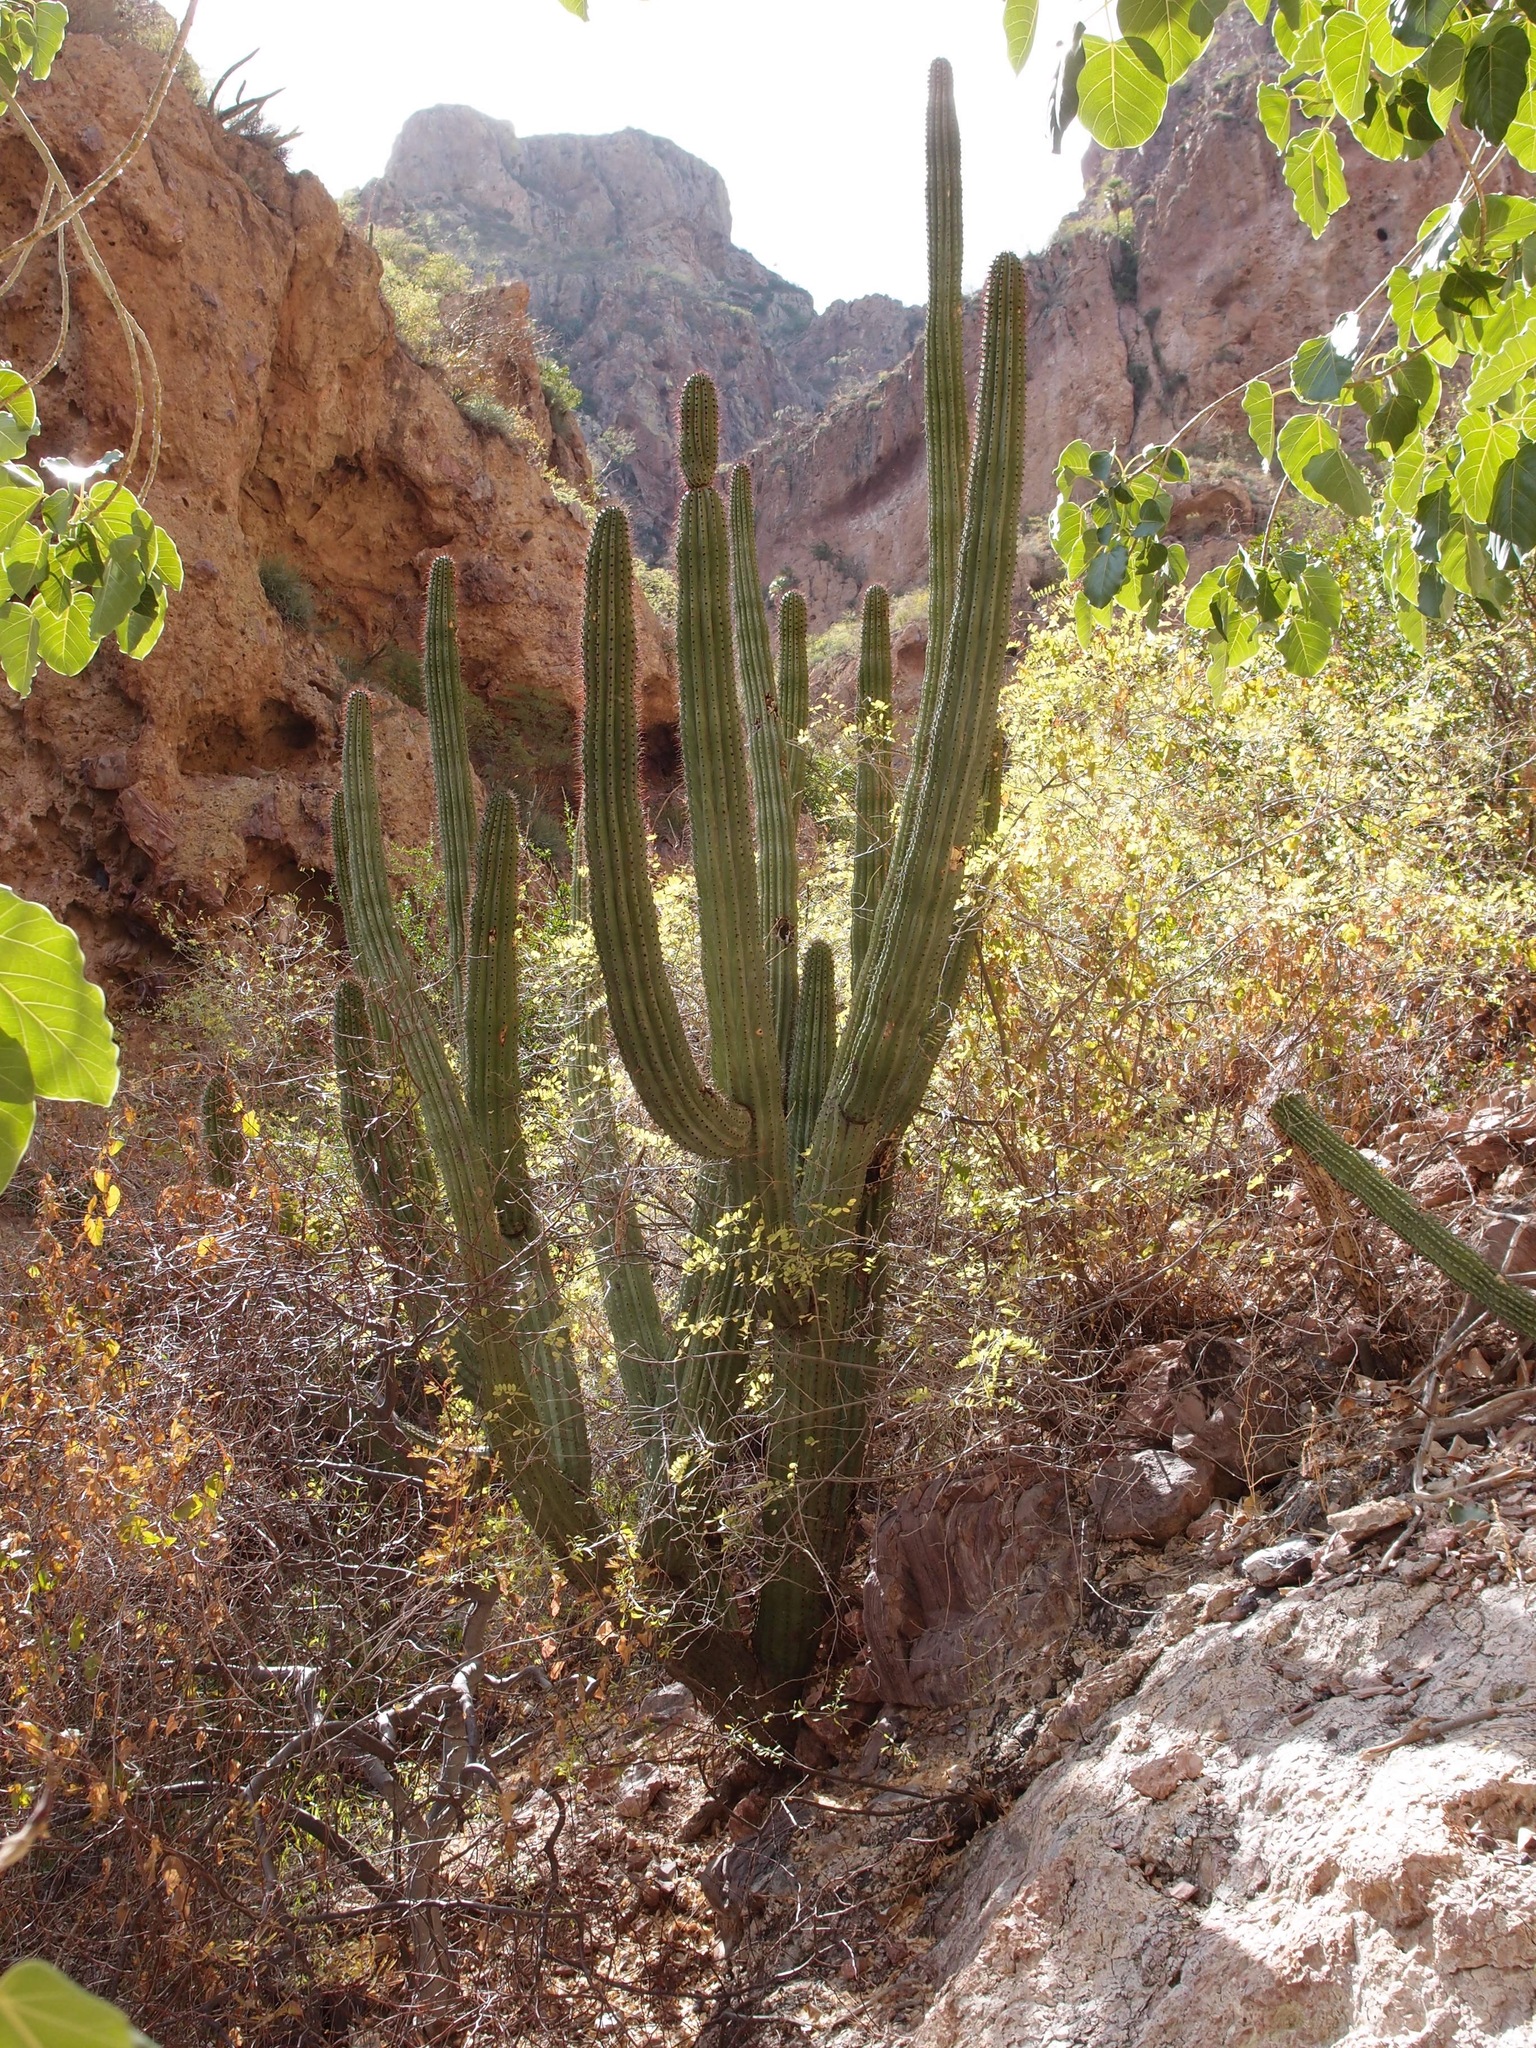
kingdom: Plantae
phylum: Tracheophyta
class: Magnoliopsida
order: Caryophyllales
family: Cactaceae
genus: Stenocereus
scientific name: Stenocereus thurberi
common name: Organ pipe cactus
